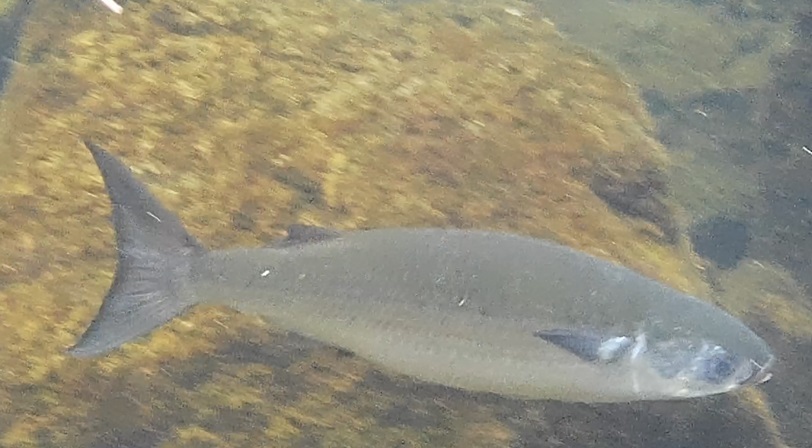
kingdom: Animalia
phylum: Chordata
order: Mugiliformes
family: Mugilidae
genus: Mugil
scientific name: Mugil cephalus
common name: Grey mullet
